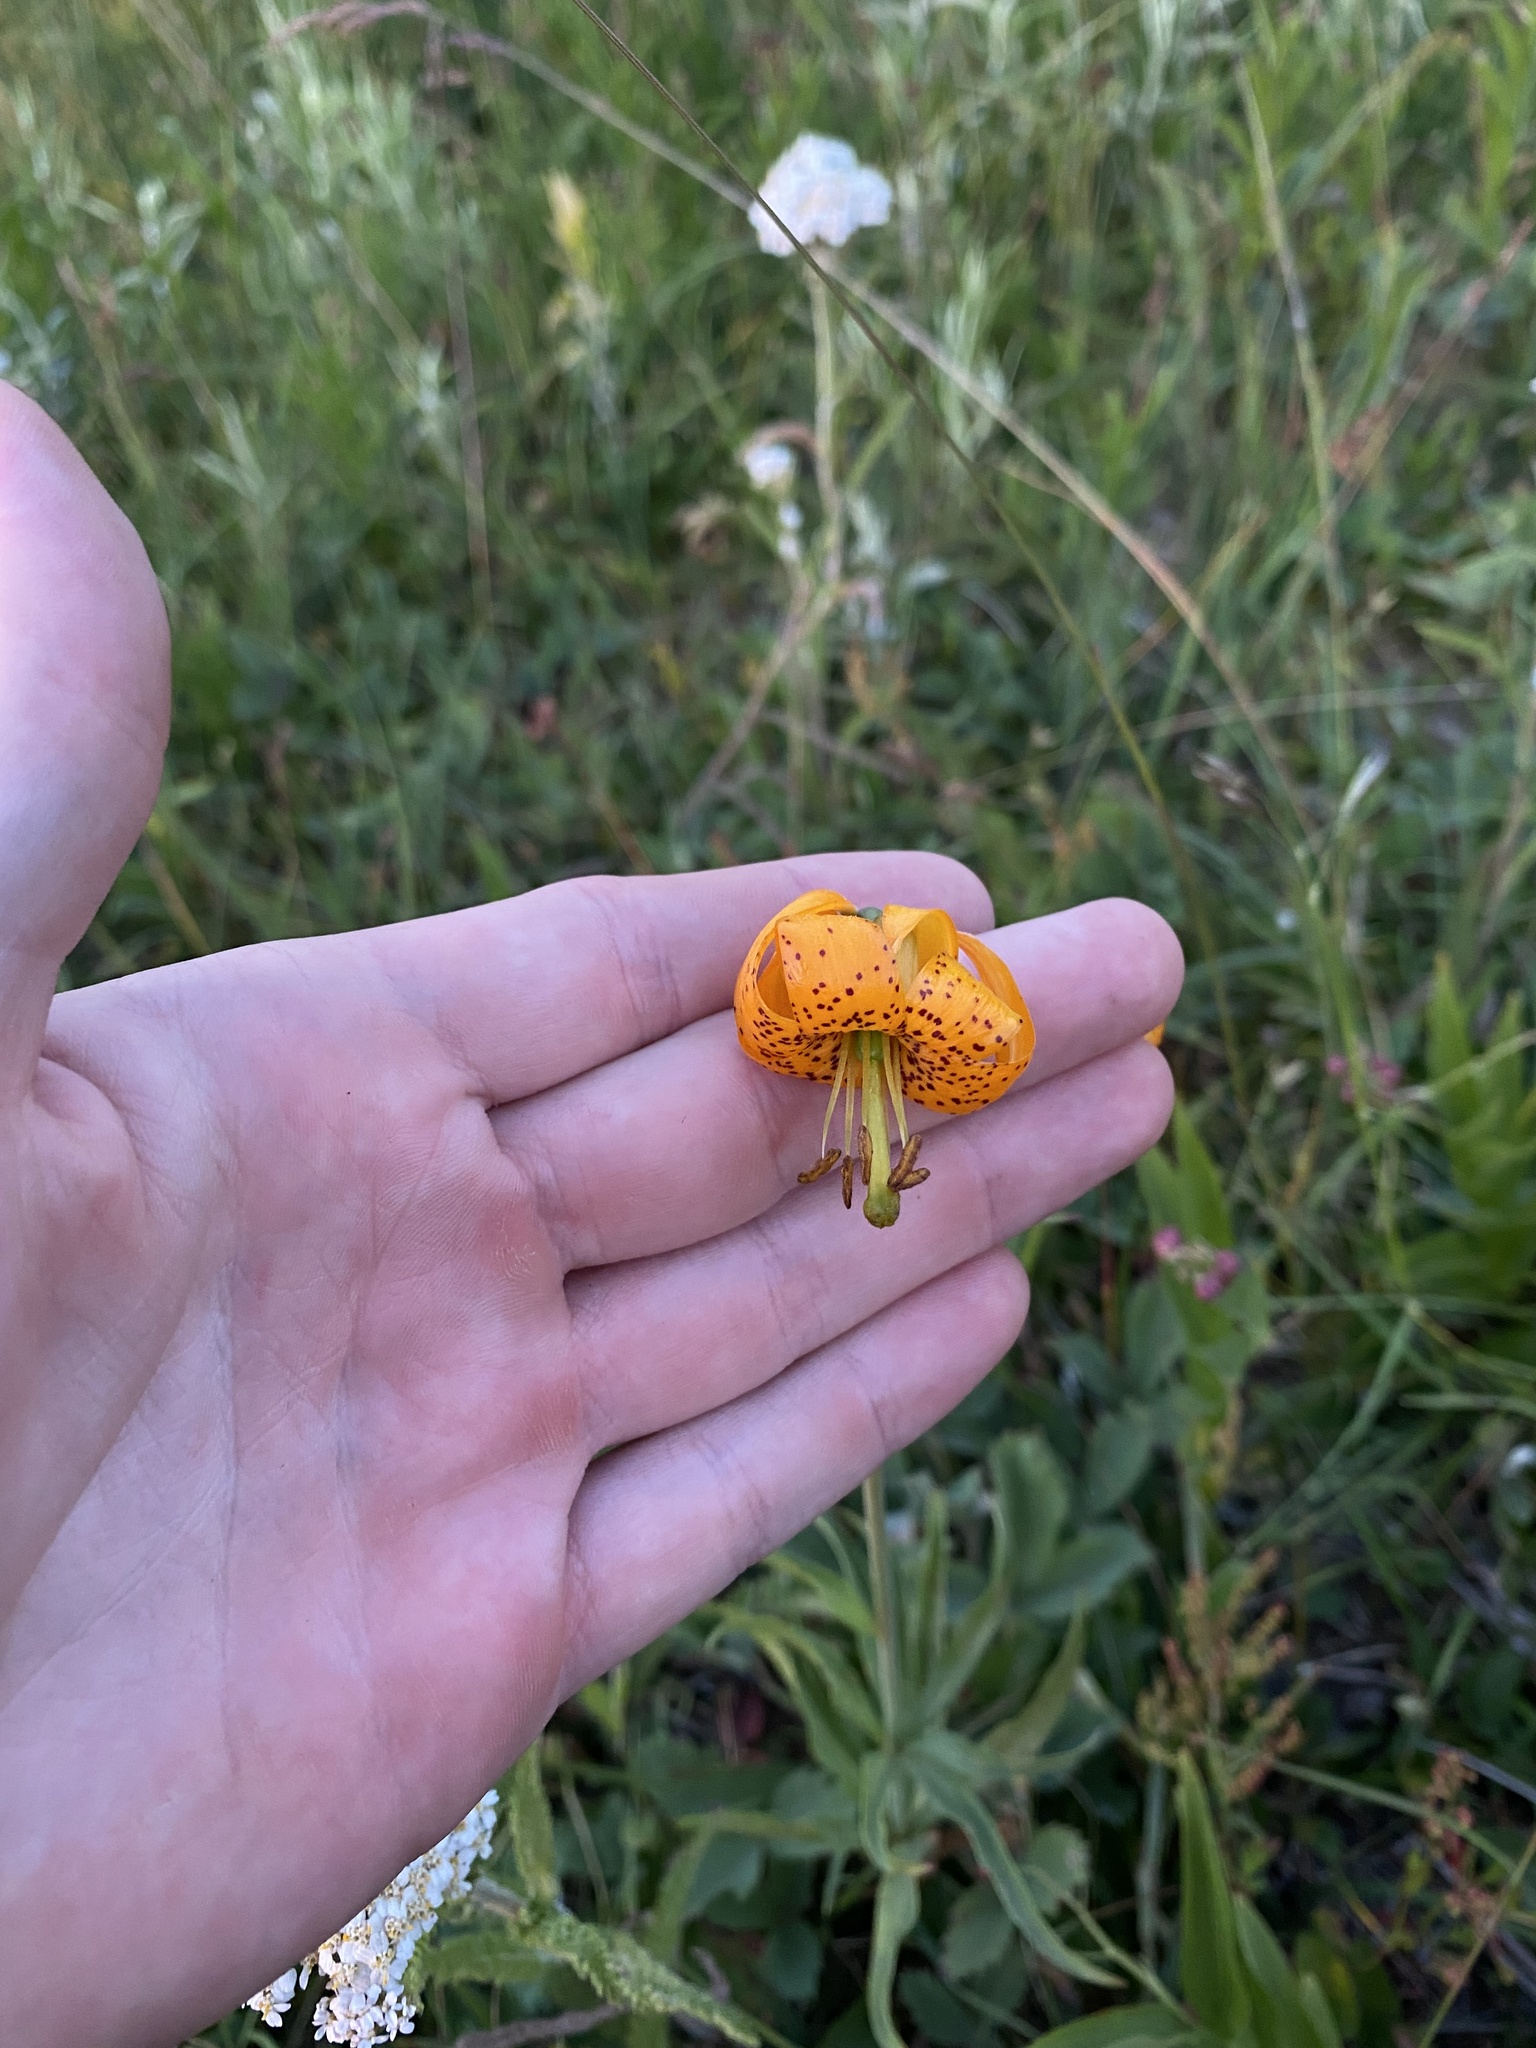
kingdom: Plantae
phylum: Tracheophyta
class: Liliopsida
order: Liliales
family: Liliaceae
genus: Lilium
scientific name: Lilium columbianum
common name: Columbia lily
